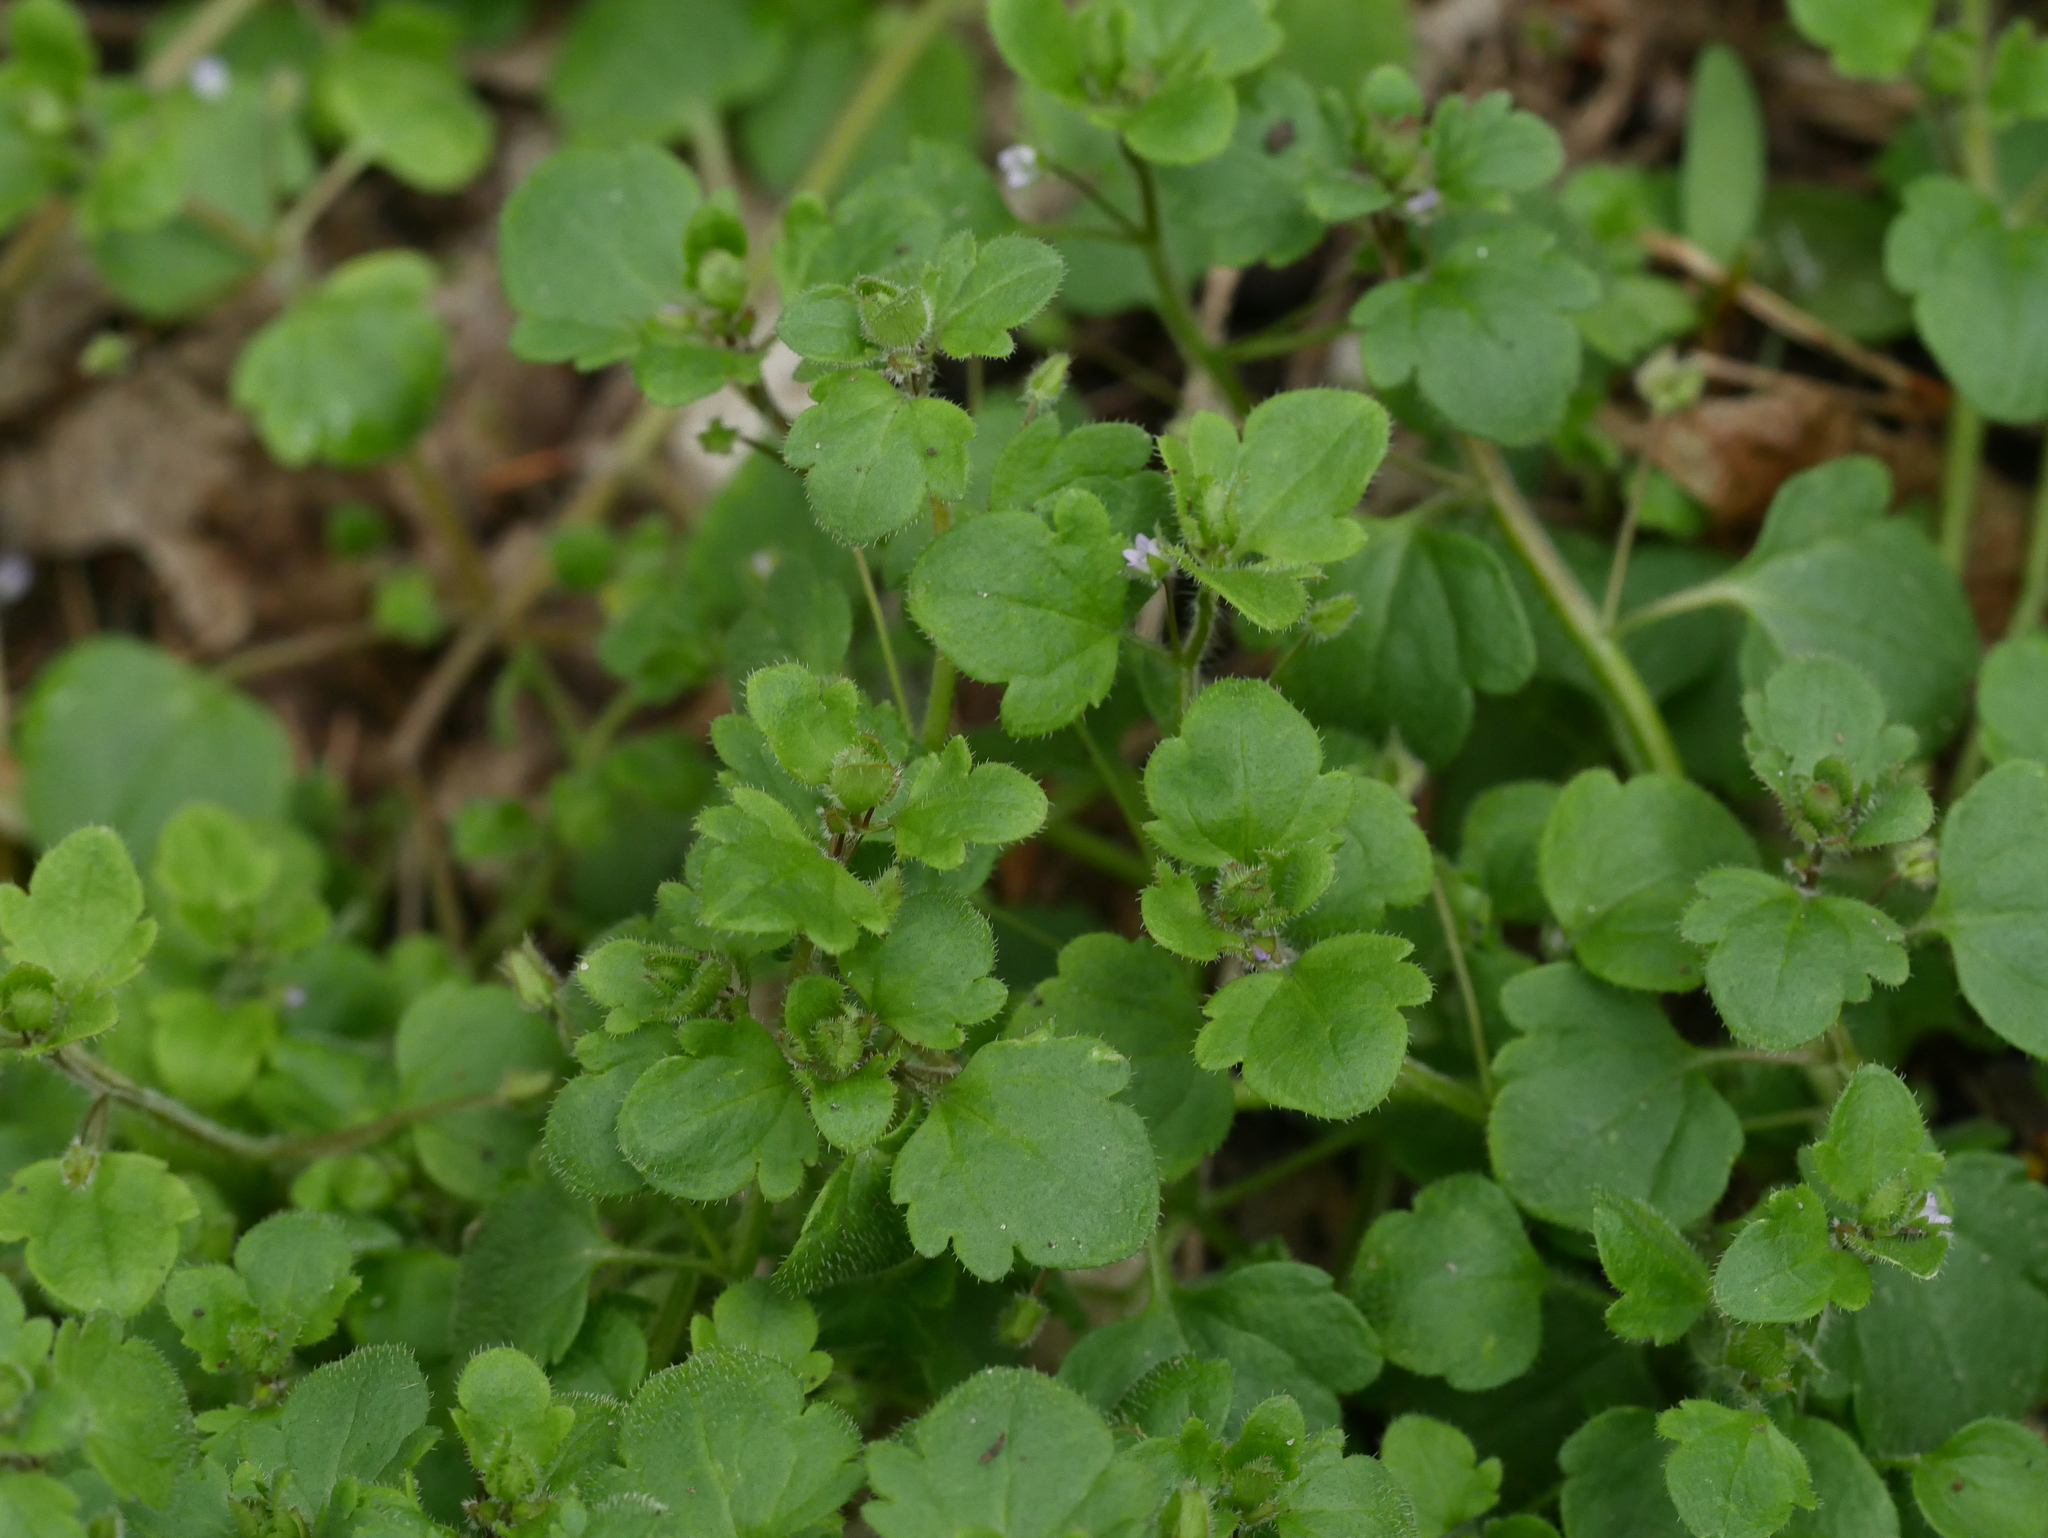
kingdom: Plantae
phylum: Tracheophyta
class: Magnoliopsida
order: Lamiales
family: Plantaginaceae
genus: Veronica
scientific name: Veronica sublobata
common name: False ivy-leaved speedwell
